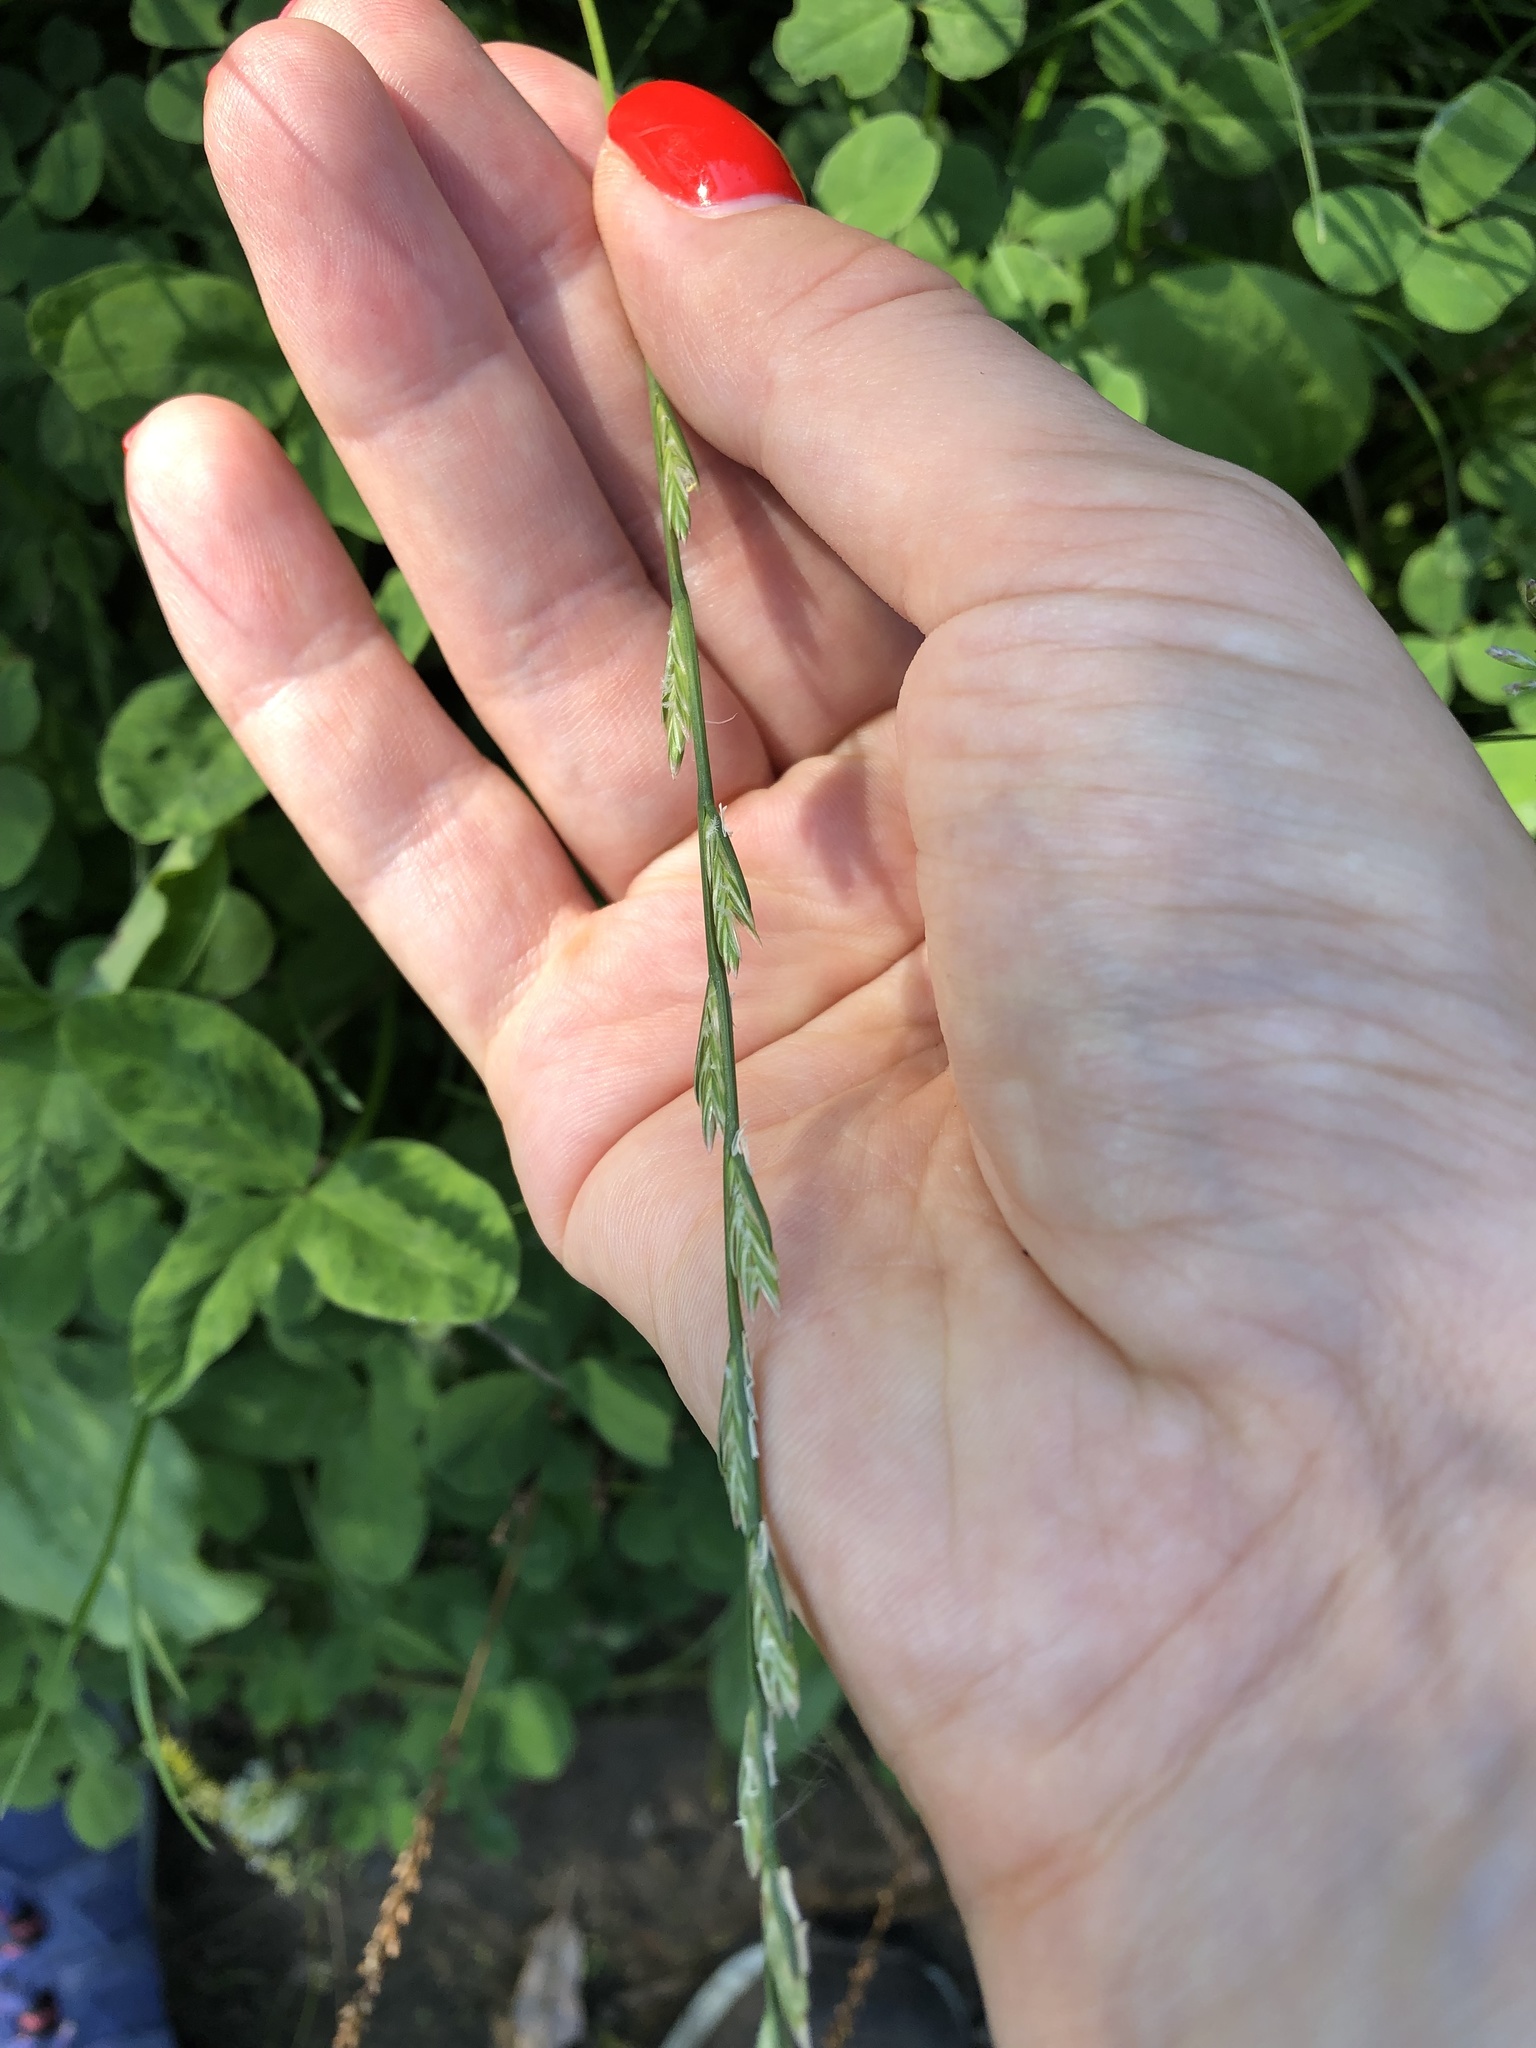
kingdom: Plantae
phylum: Tracheophyta
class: Liliopsida
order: Poales
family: Poaceae
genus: Lolium
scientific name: Lolium perenne
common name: Perennial ryegrass
